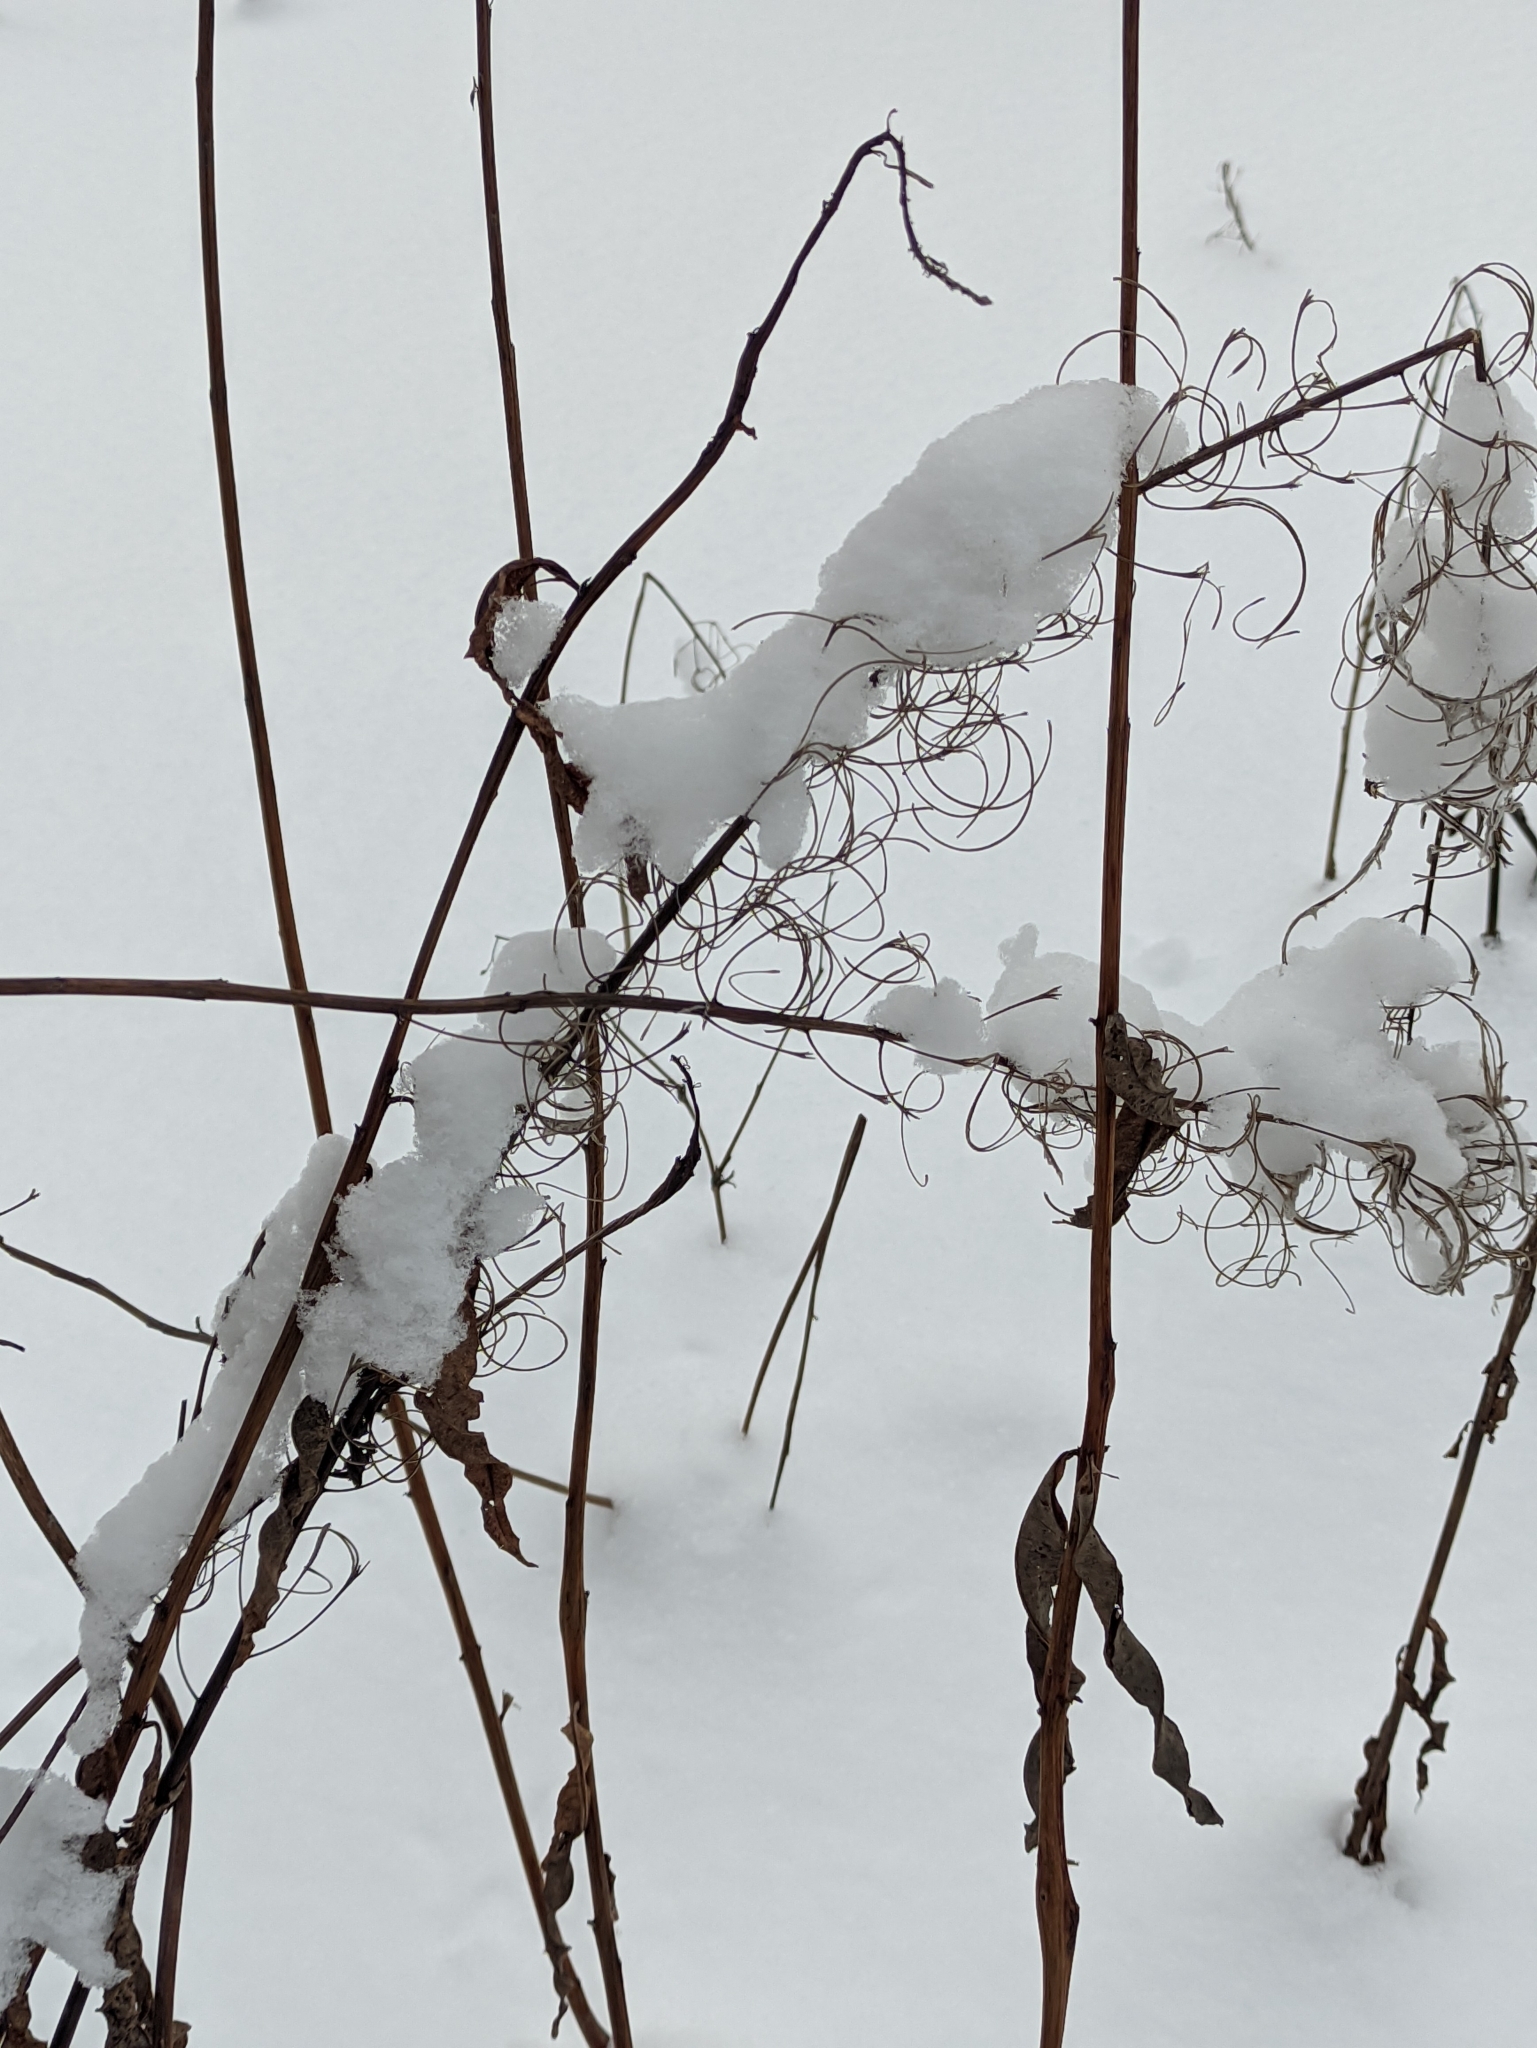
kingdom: Plantae
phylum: Tracheophyta
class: Magnoliopsida
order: Myrtales
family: Onagraceae
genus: Chamaenerion
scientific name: Chamaenerion angustifolium
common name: Fireweed
